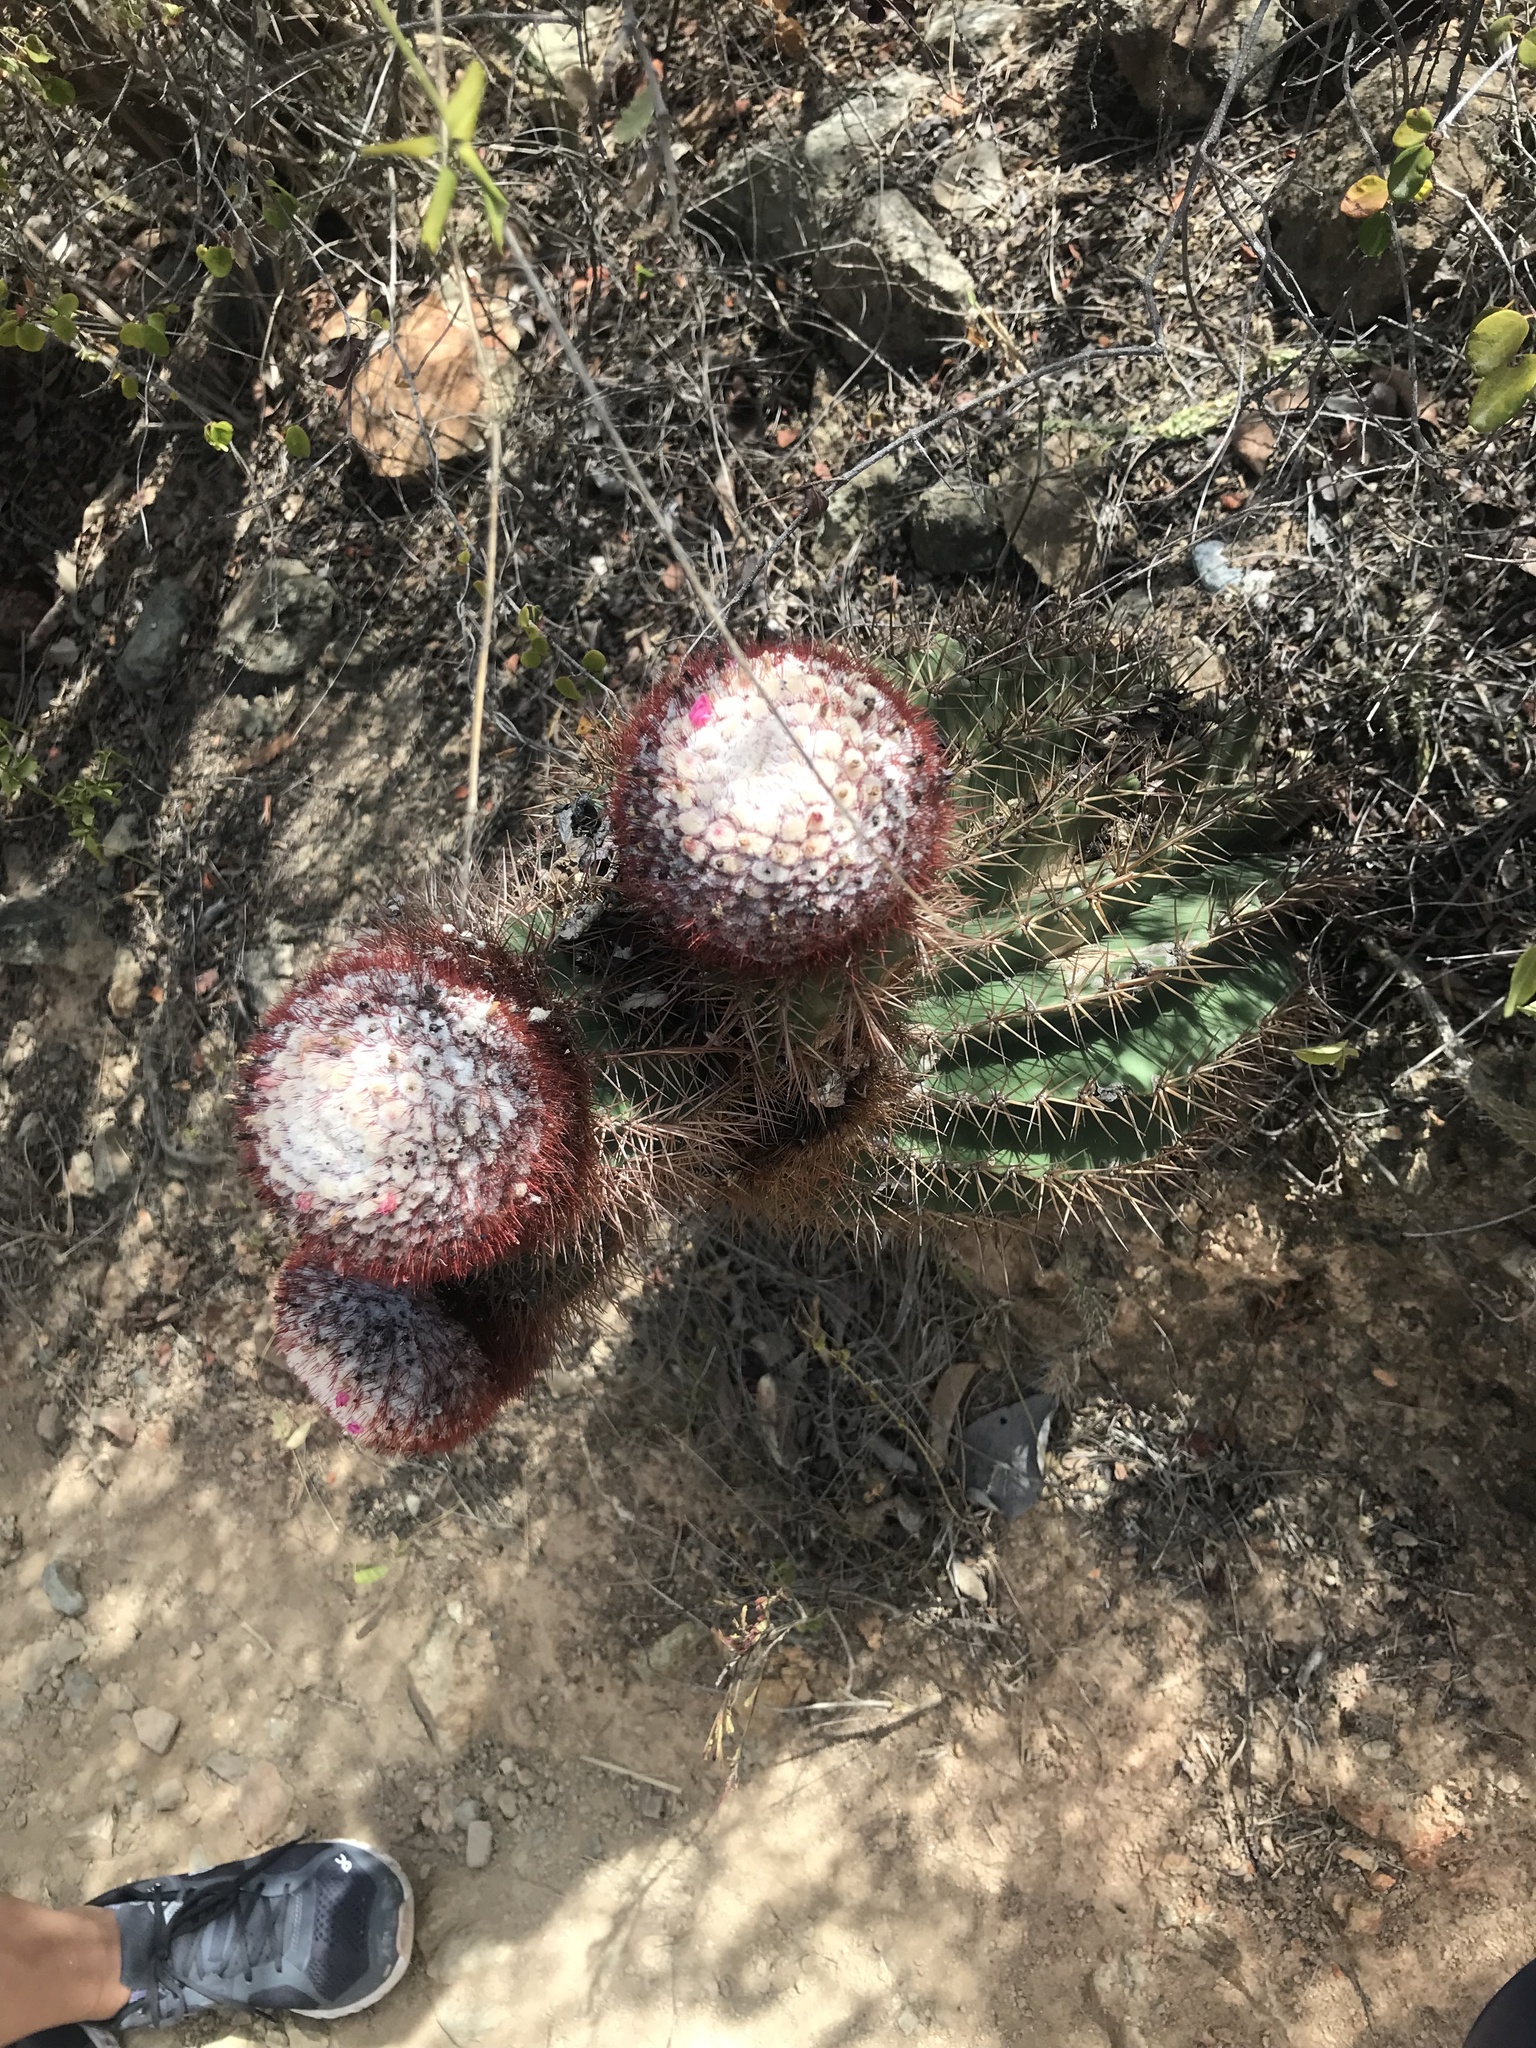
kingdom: Plantae
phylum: Tracheophyta
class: Magnoliopsida
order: Caryophyllales
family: Cactaceae
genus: Melocactus
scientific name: Melocactus intortus
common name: Barrel cactus
